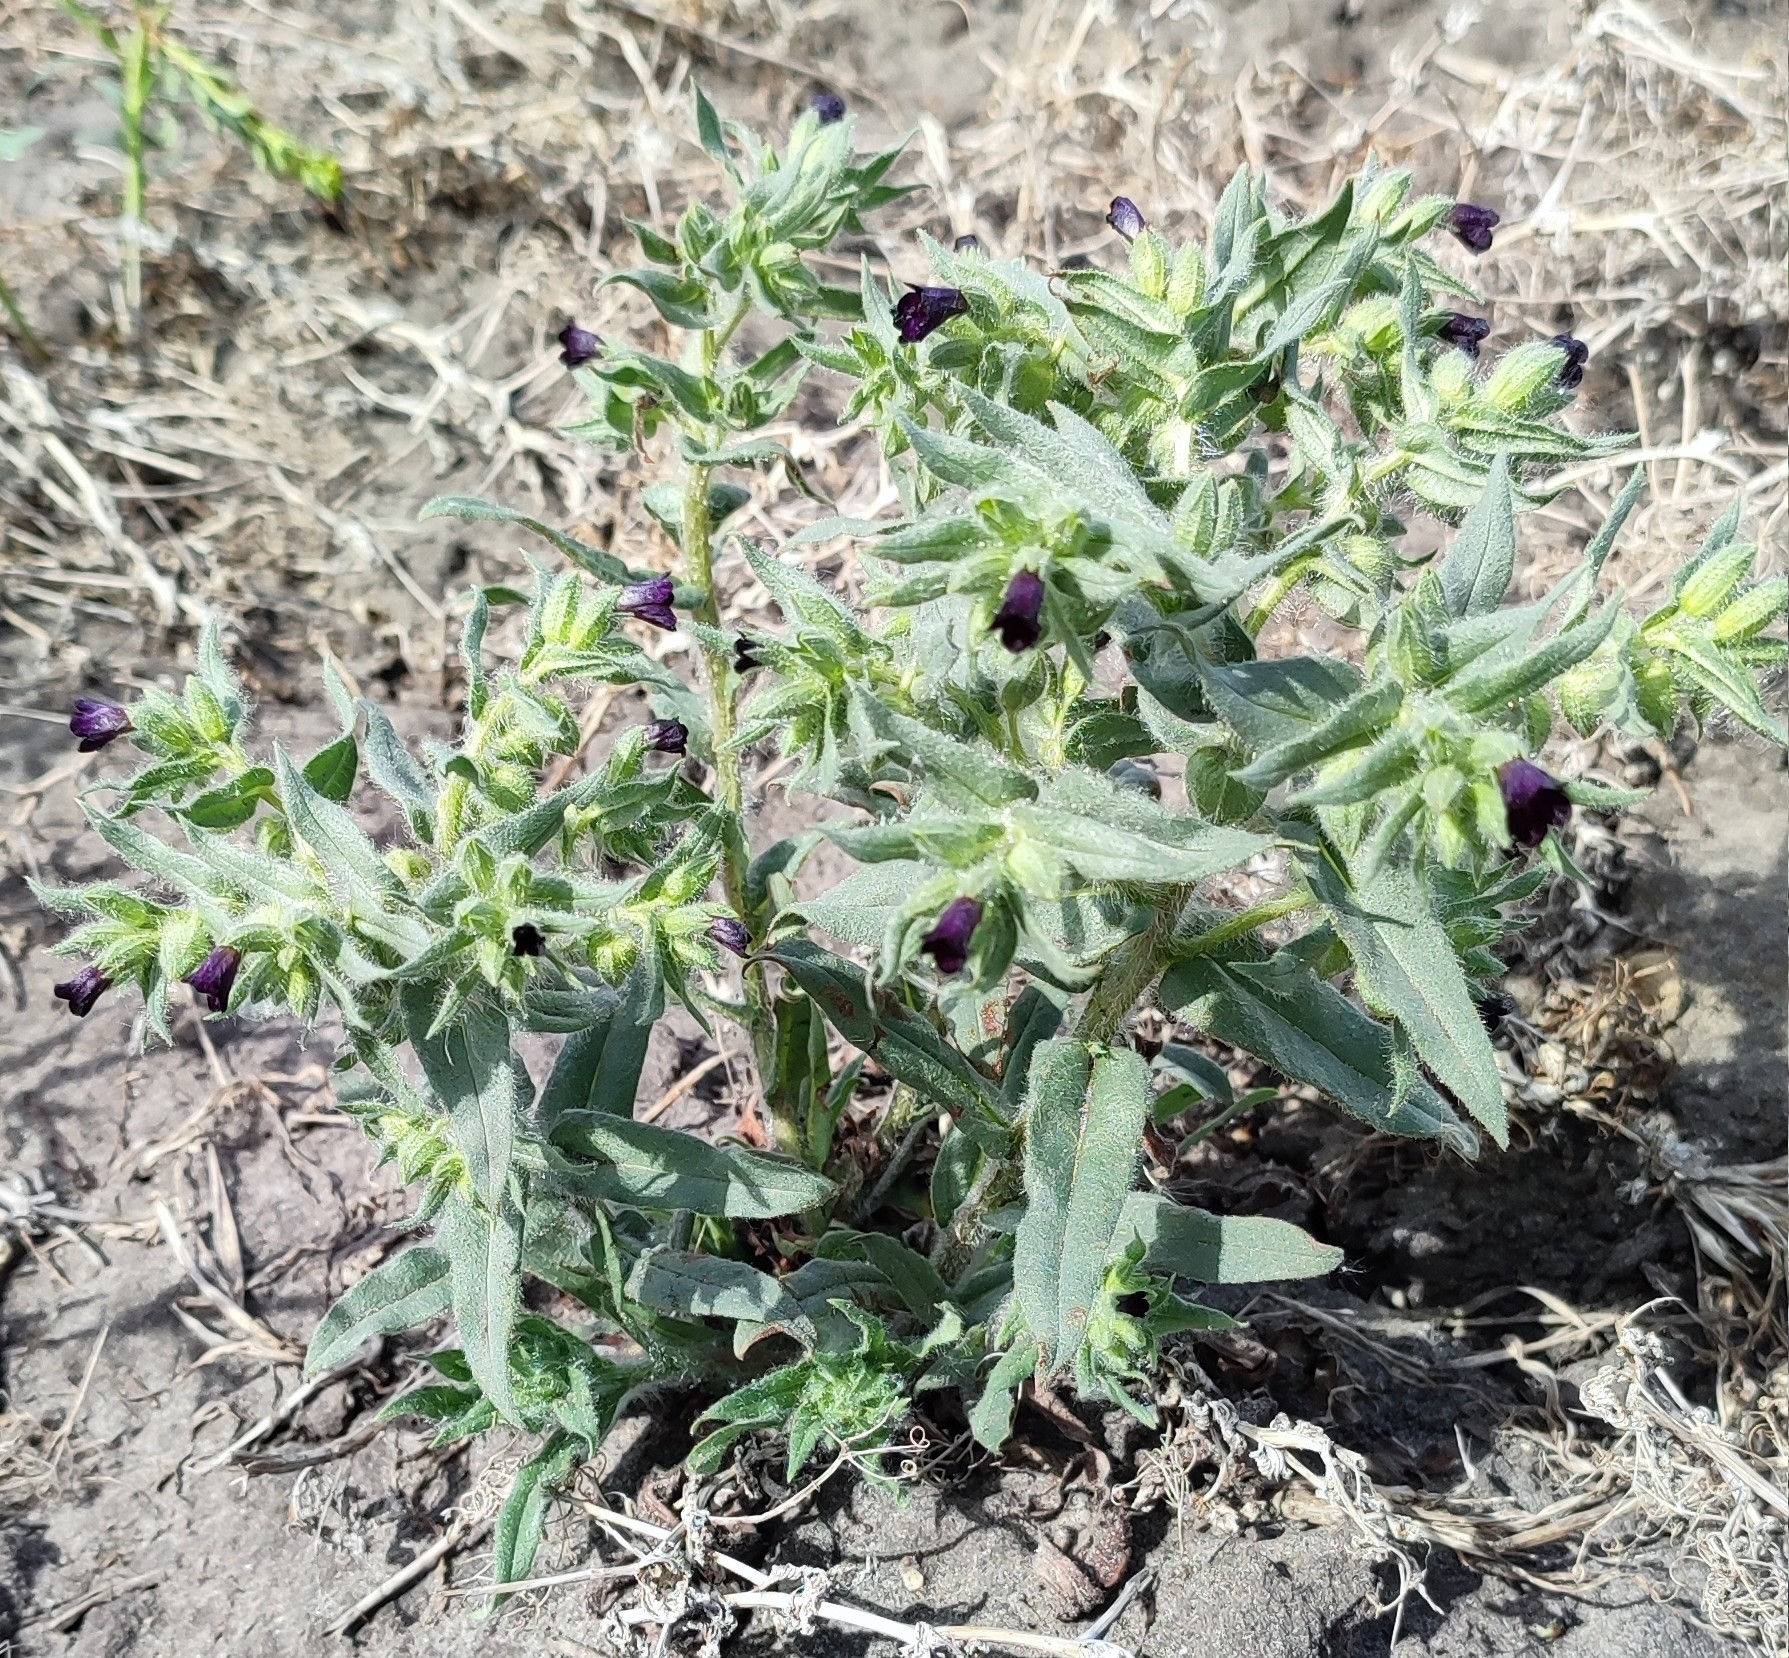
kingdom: Plantae
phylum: Tracheophyta
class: Magnoliopsida
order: Boraginales
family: Boraginaceae
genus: Nonea
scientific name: Nonea pulla
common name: Brown nonea
